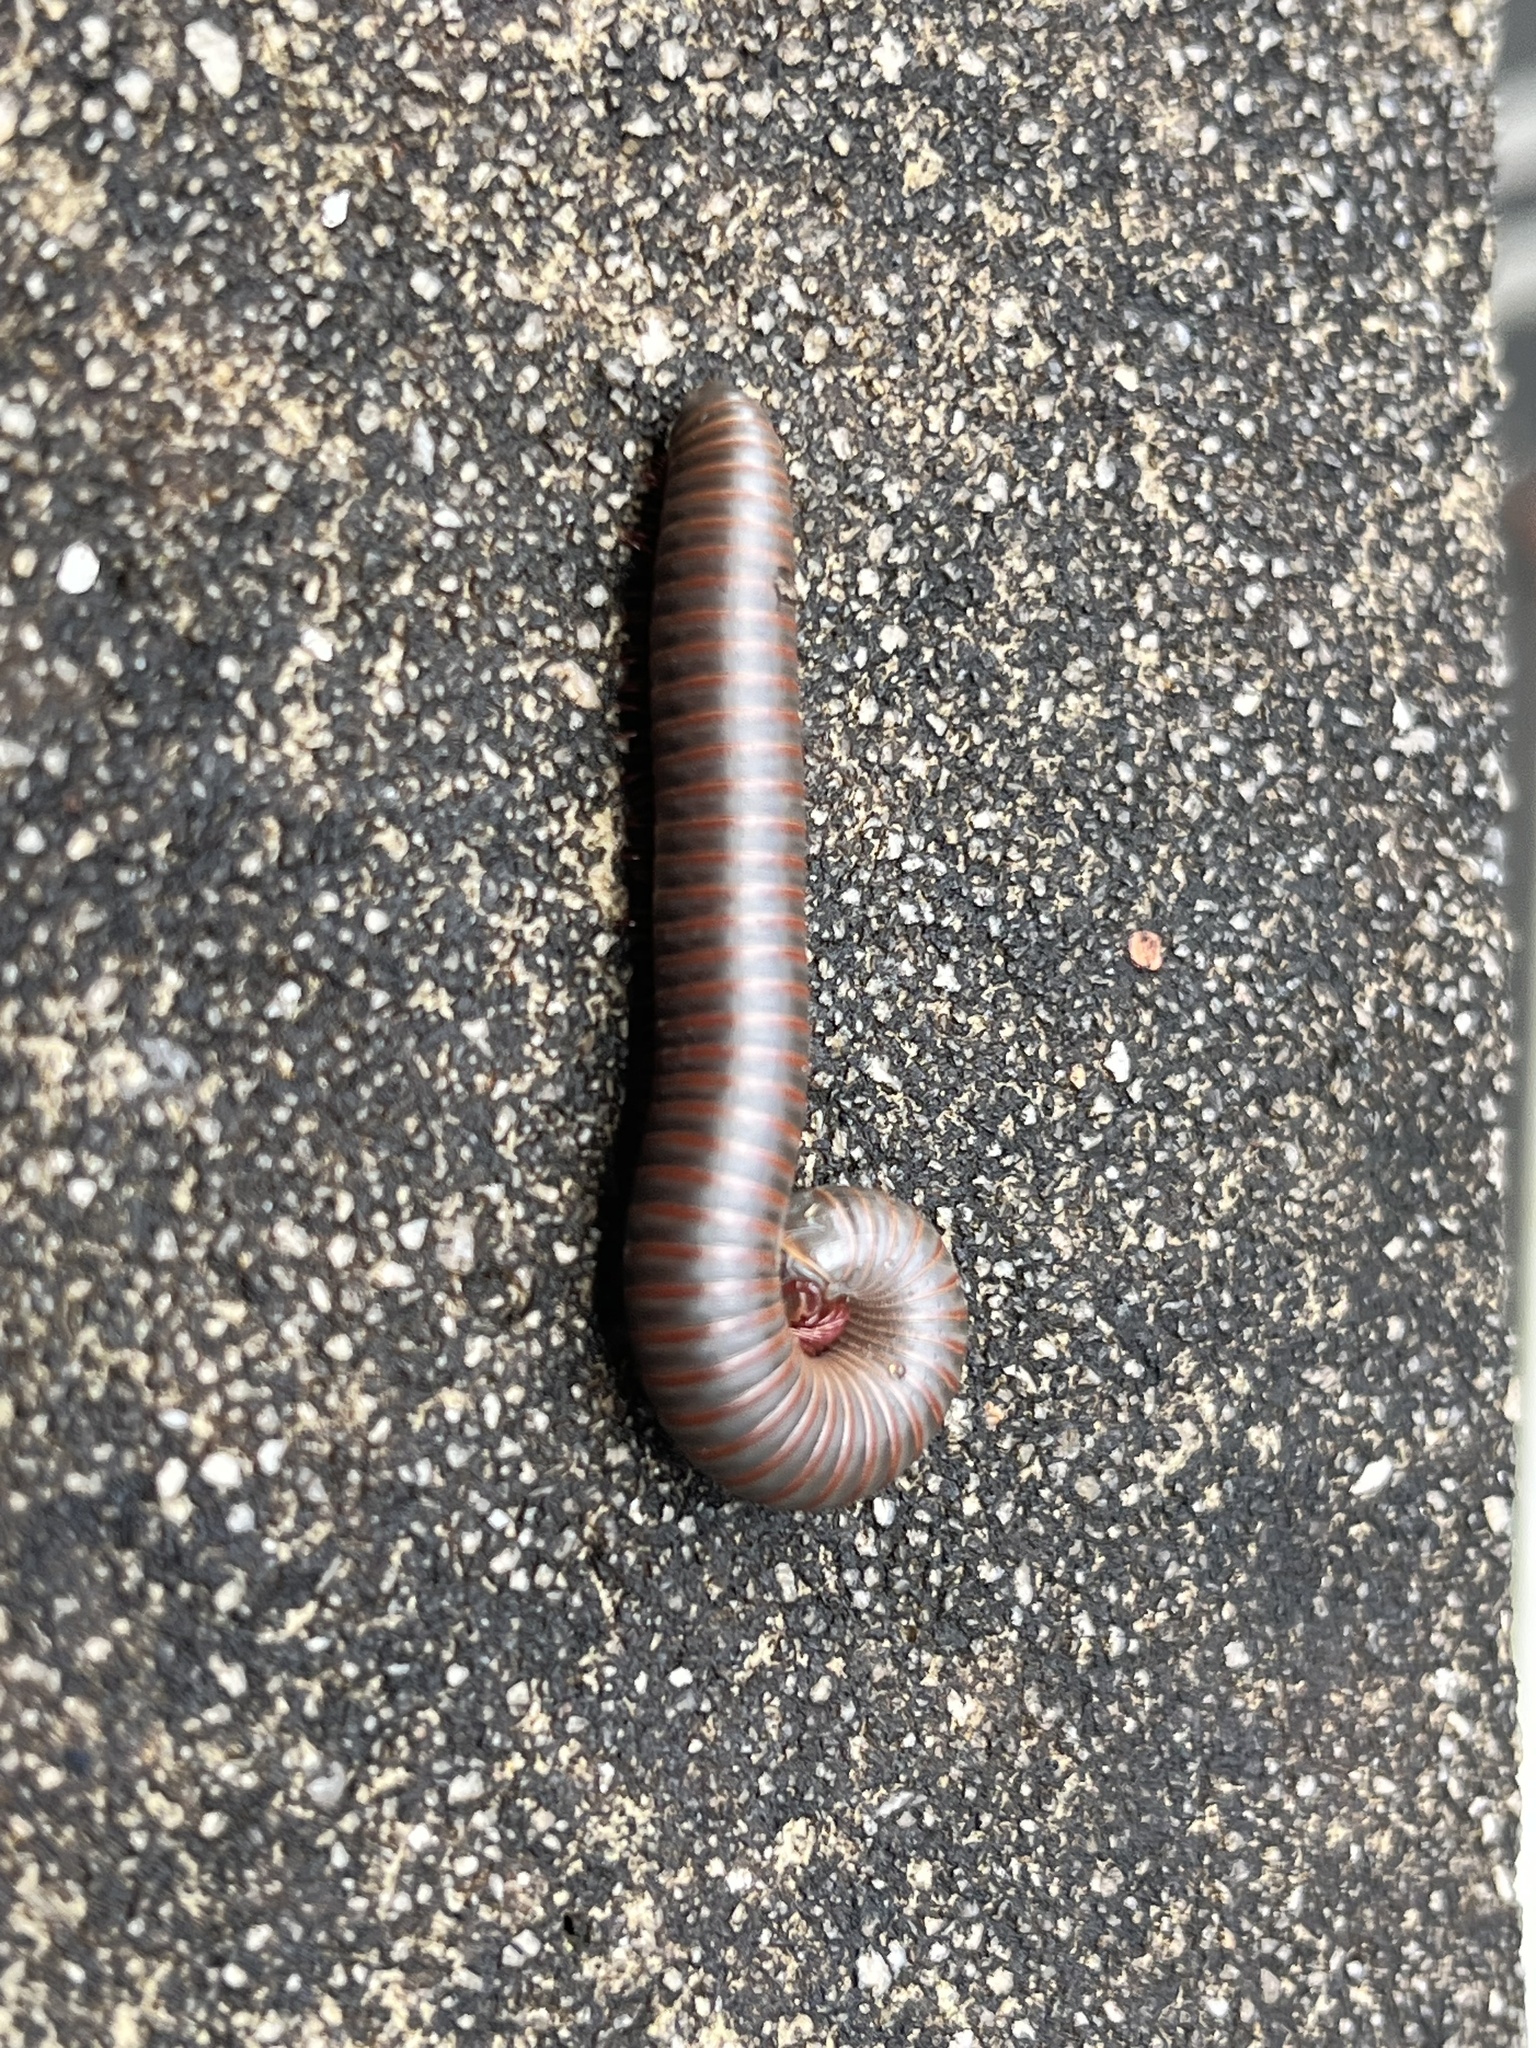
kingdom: Animalia
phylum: Arthropoda
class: Diplopoda
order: Spirobolida
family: Spirobolidae
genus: Narceus
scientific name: Narceus
